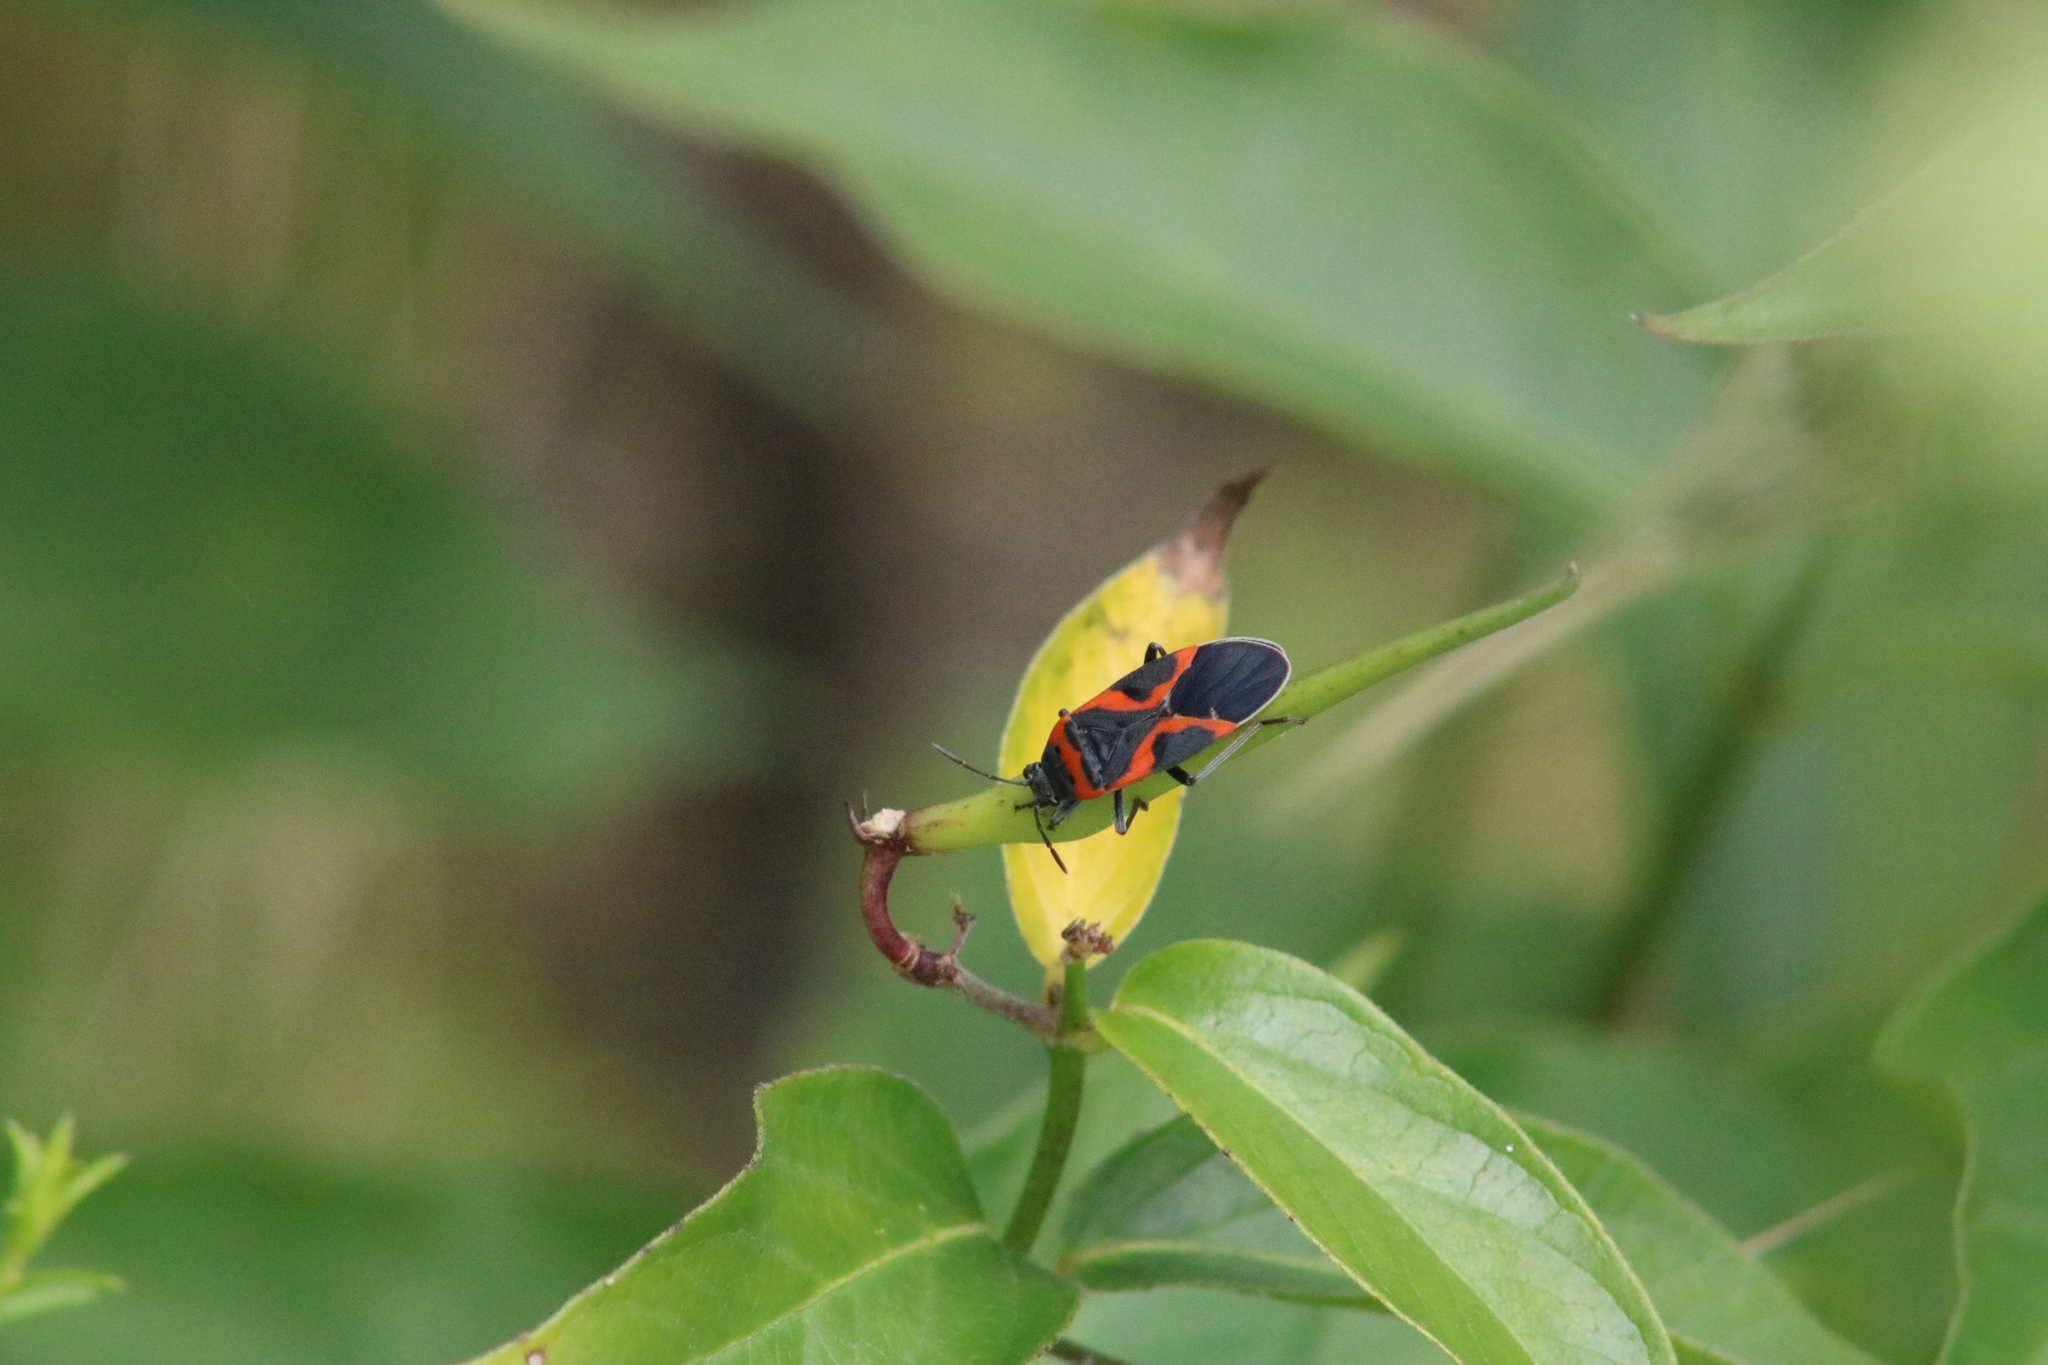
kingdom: Animalia
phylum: Arthropoda
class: Insecta
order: Hemiptera
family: Lygaeidae
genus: Lygaeus
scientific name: Lygaeus kalmii
